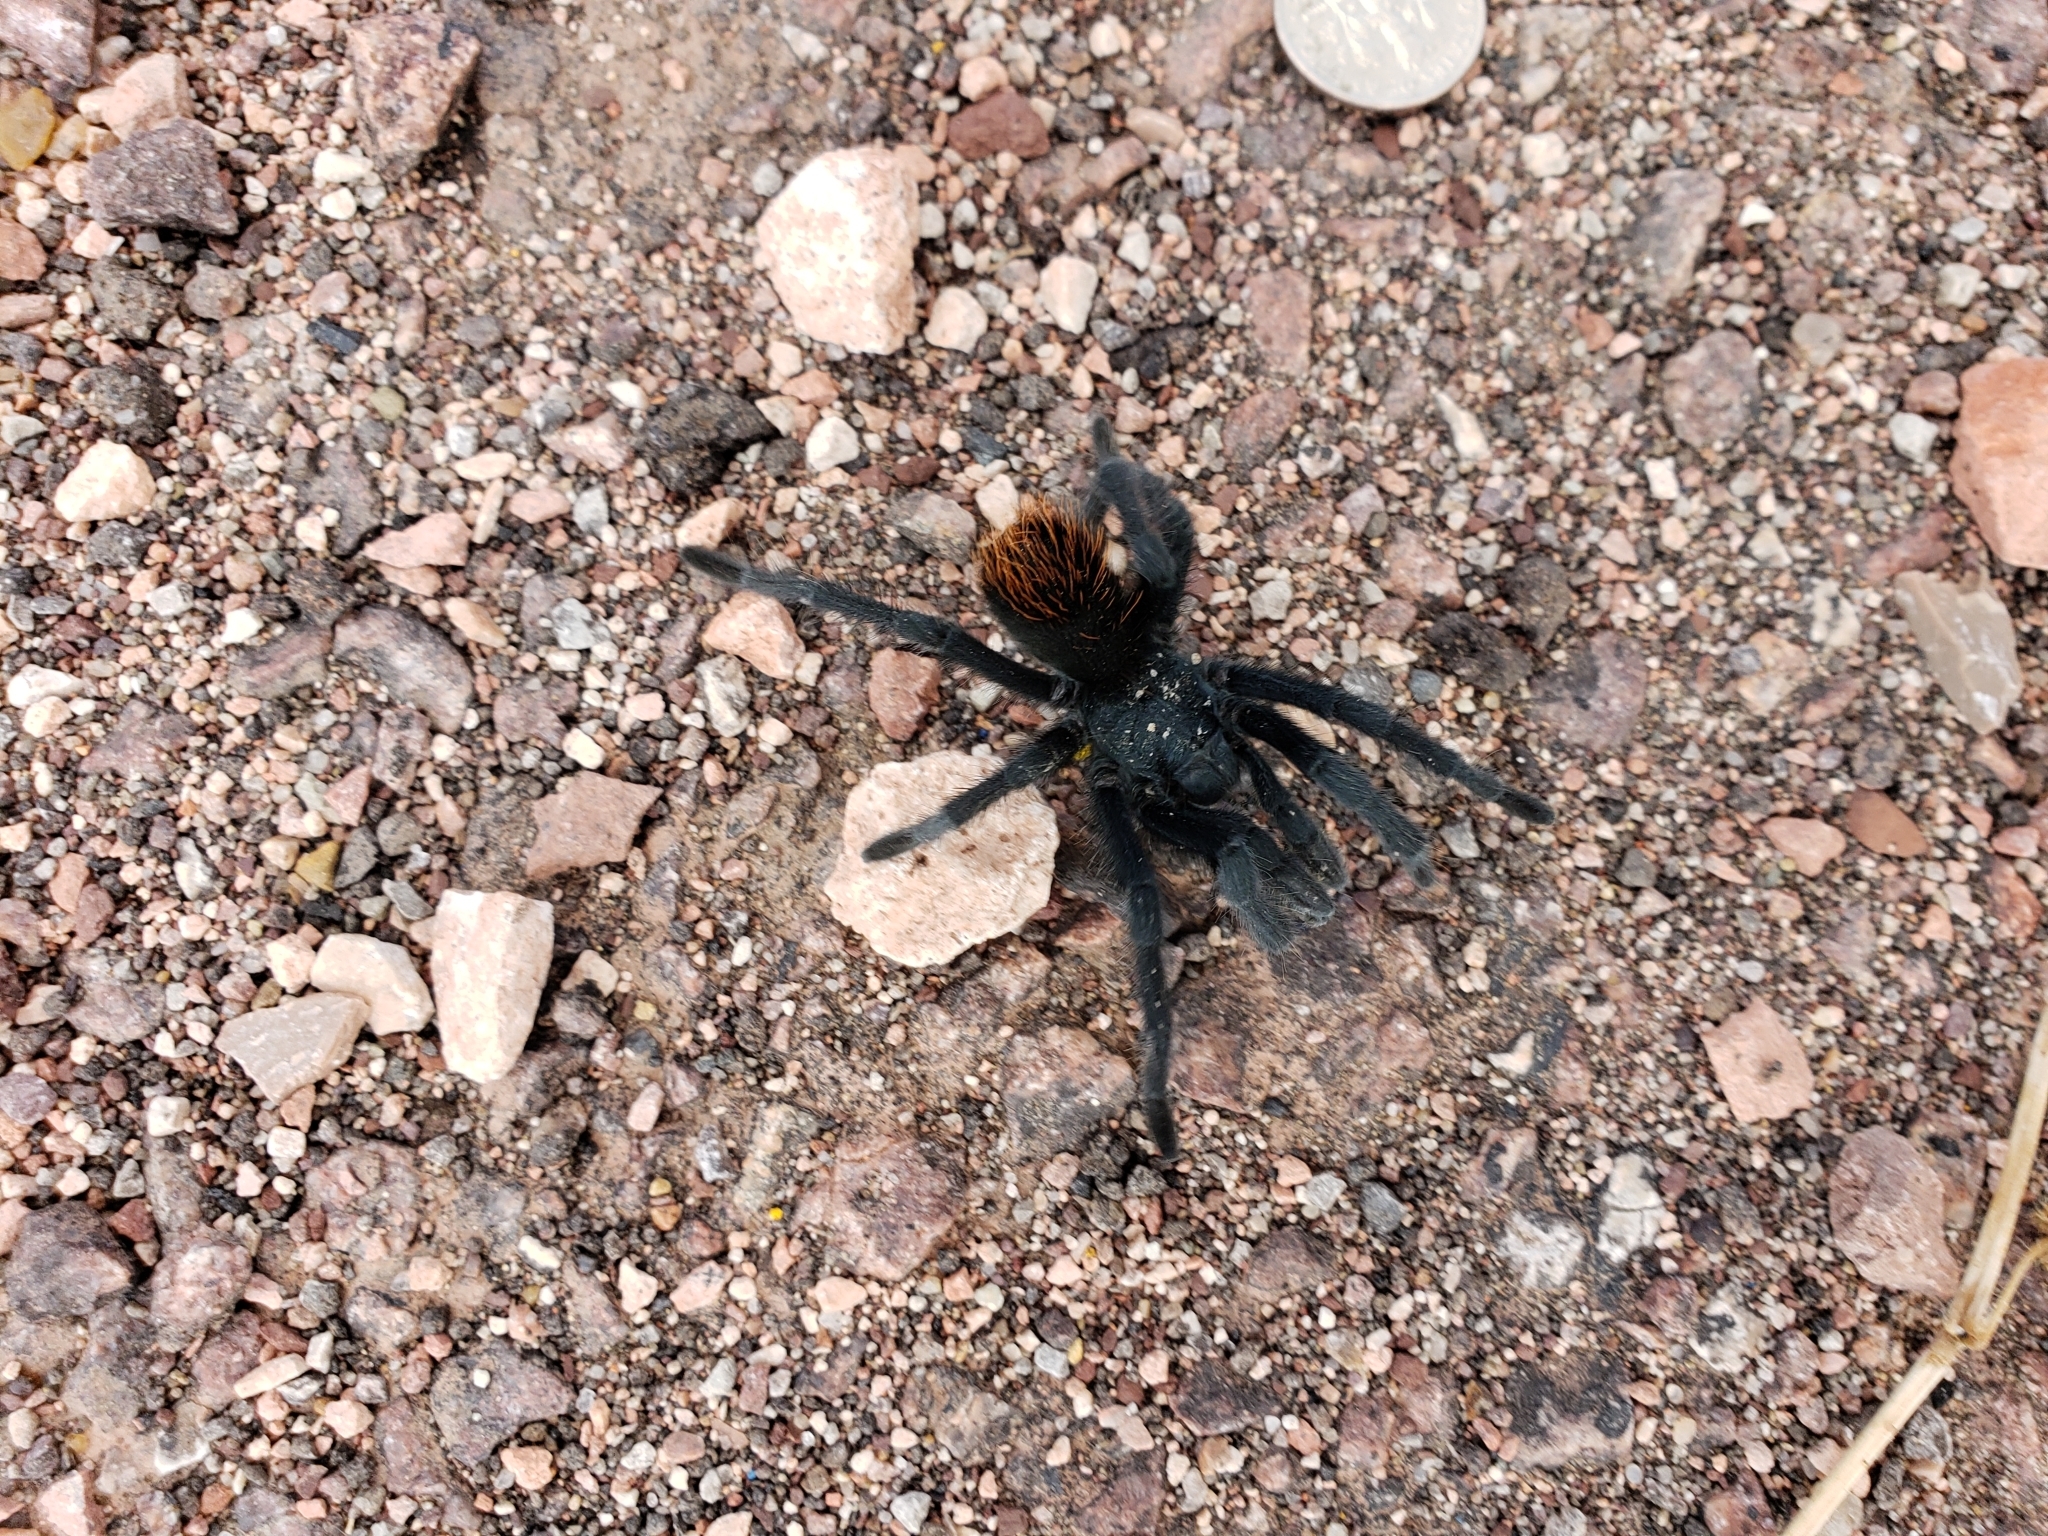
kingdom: Animalia
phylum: Arthropoda
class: Arachnida
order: Araneae
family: Theraphosidae
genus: Aphonopelma
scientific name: Aphonopelma marxi
